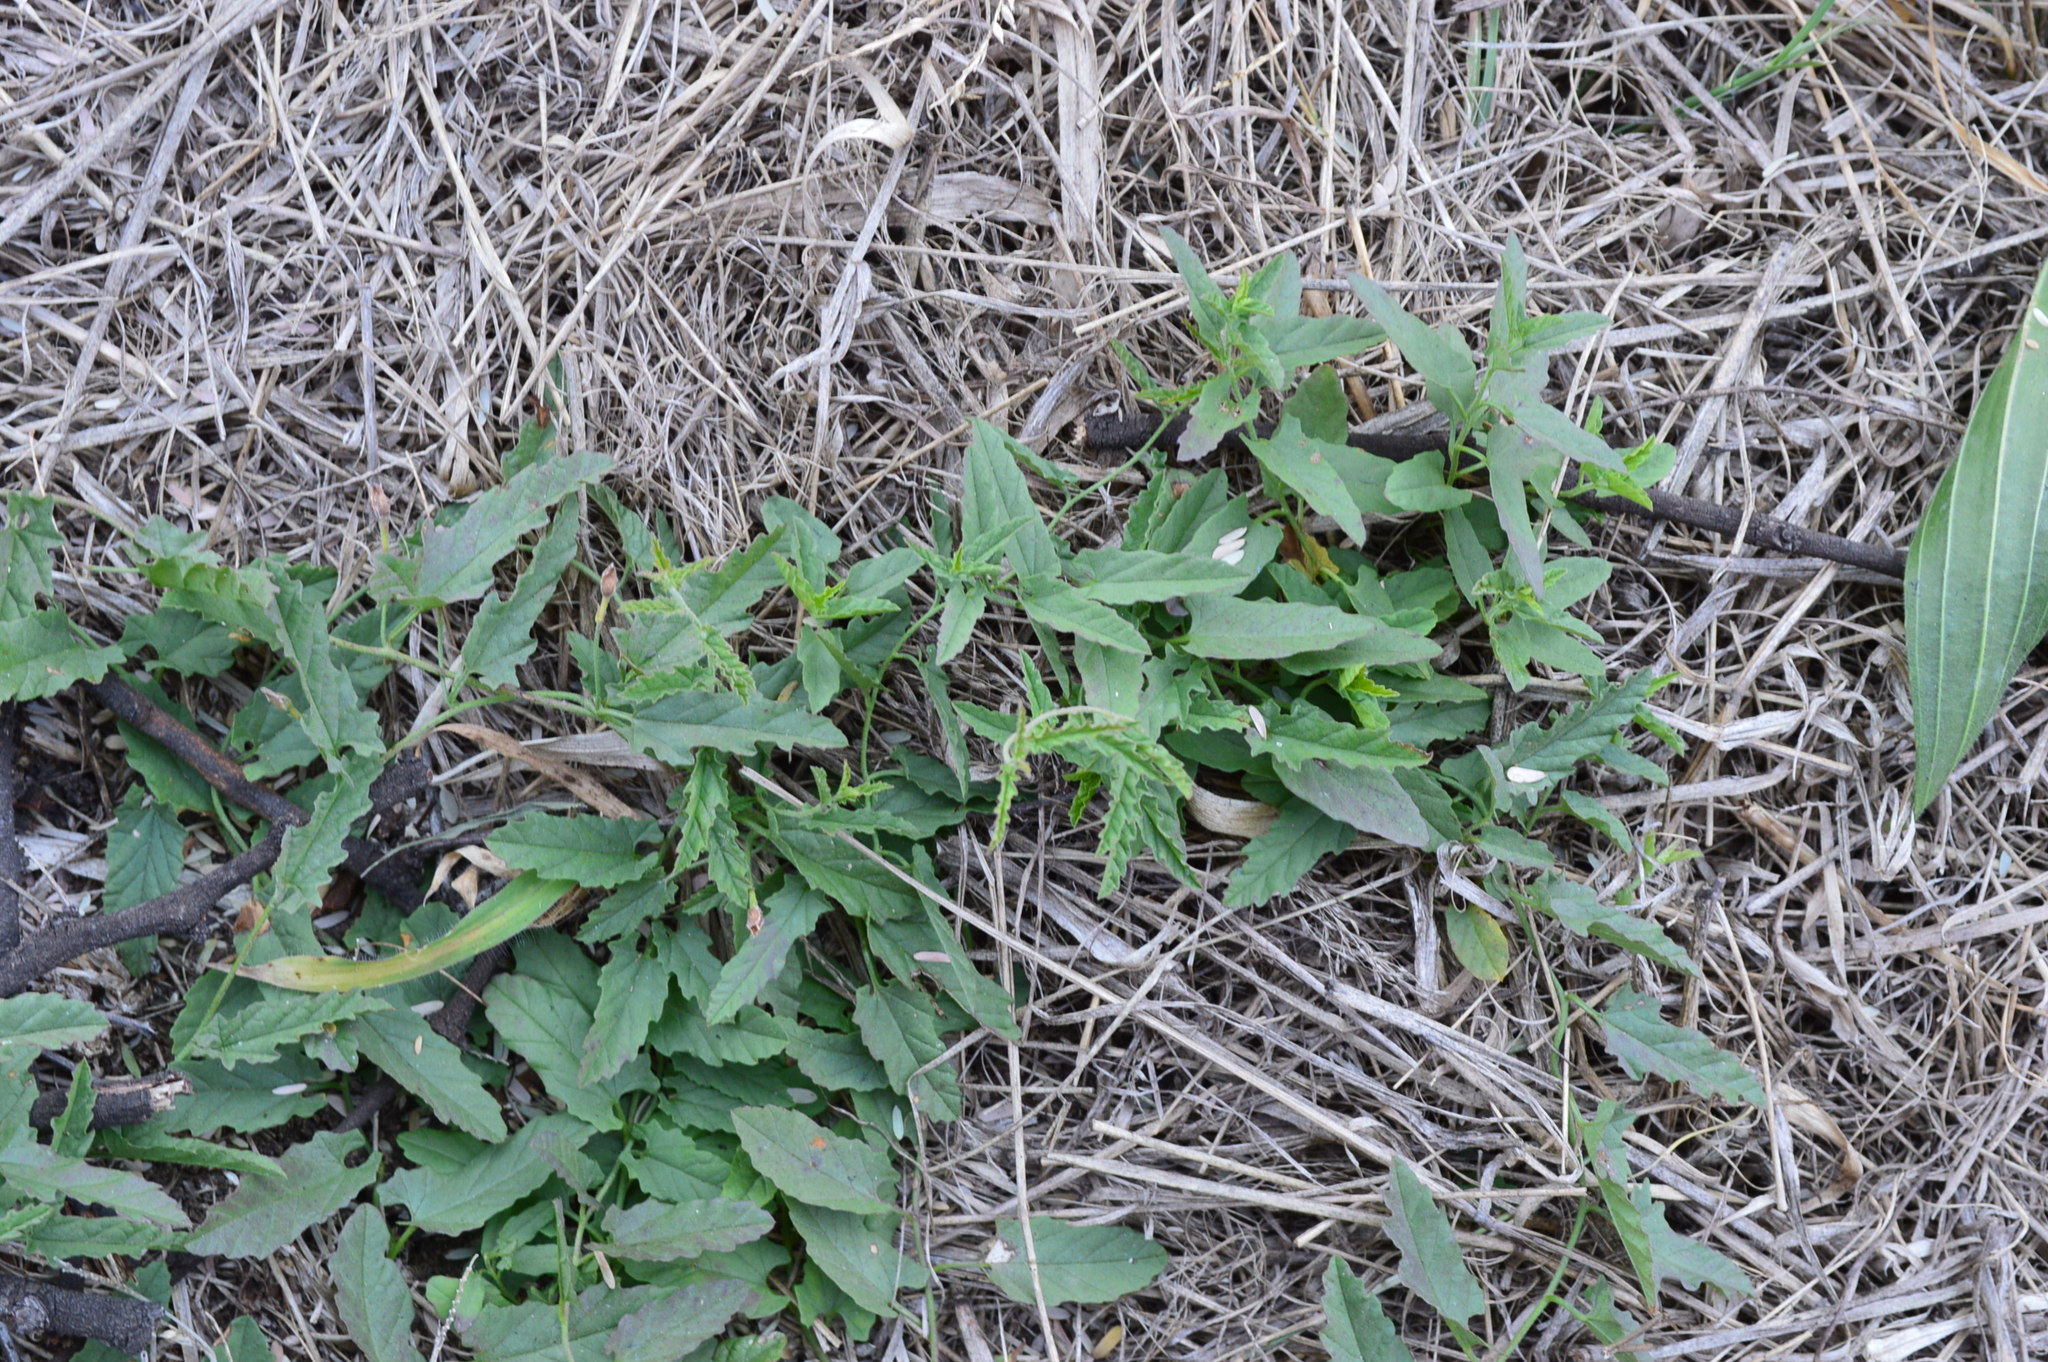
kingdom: Plantae
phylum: Tracheophyta
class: Magnoliopsida
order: Solanales
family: Convolvulaceae
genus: Convolvulus
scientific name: Convolvulus sagittatus
